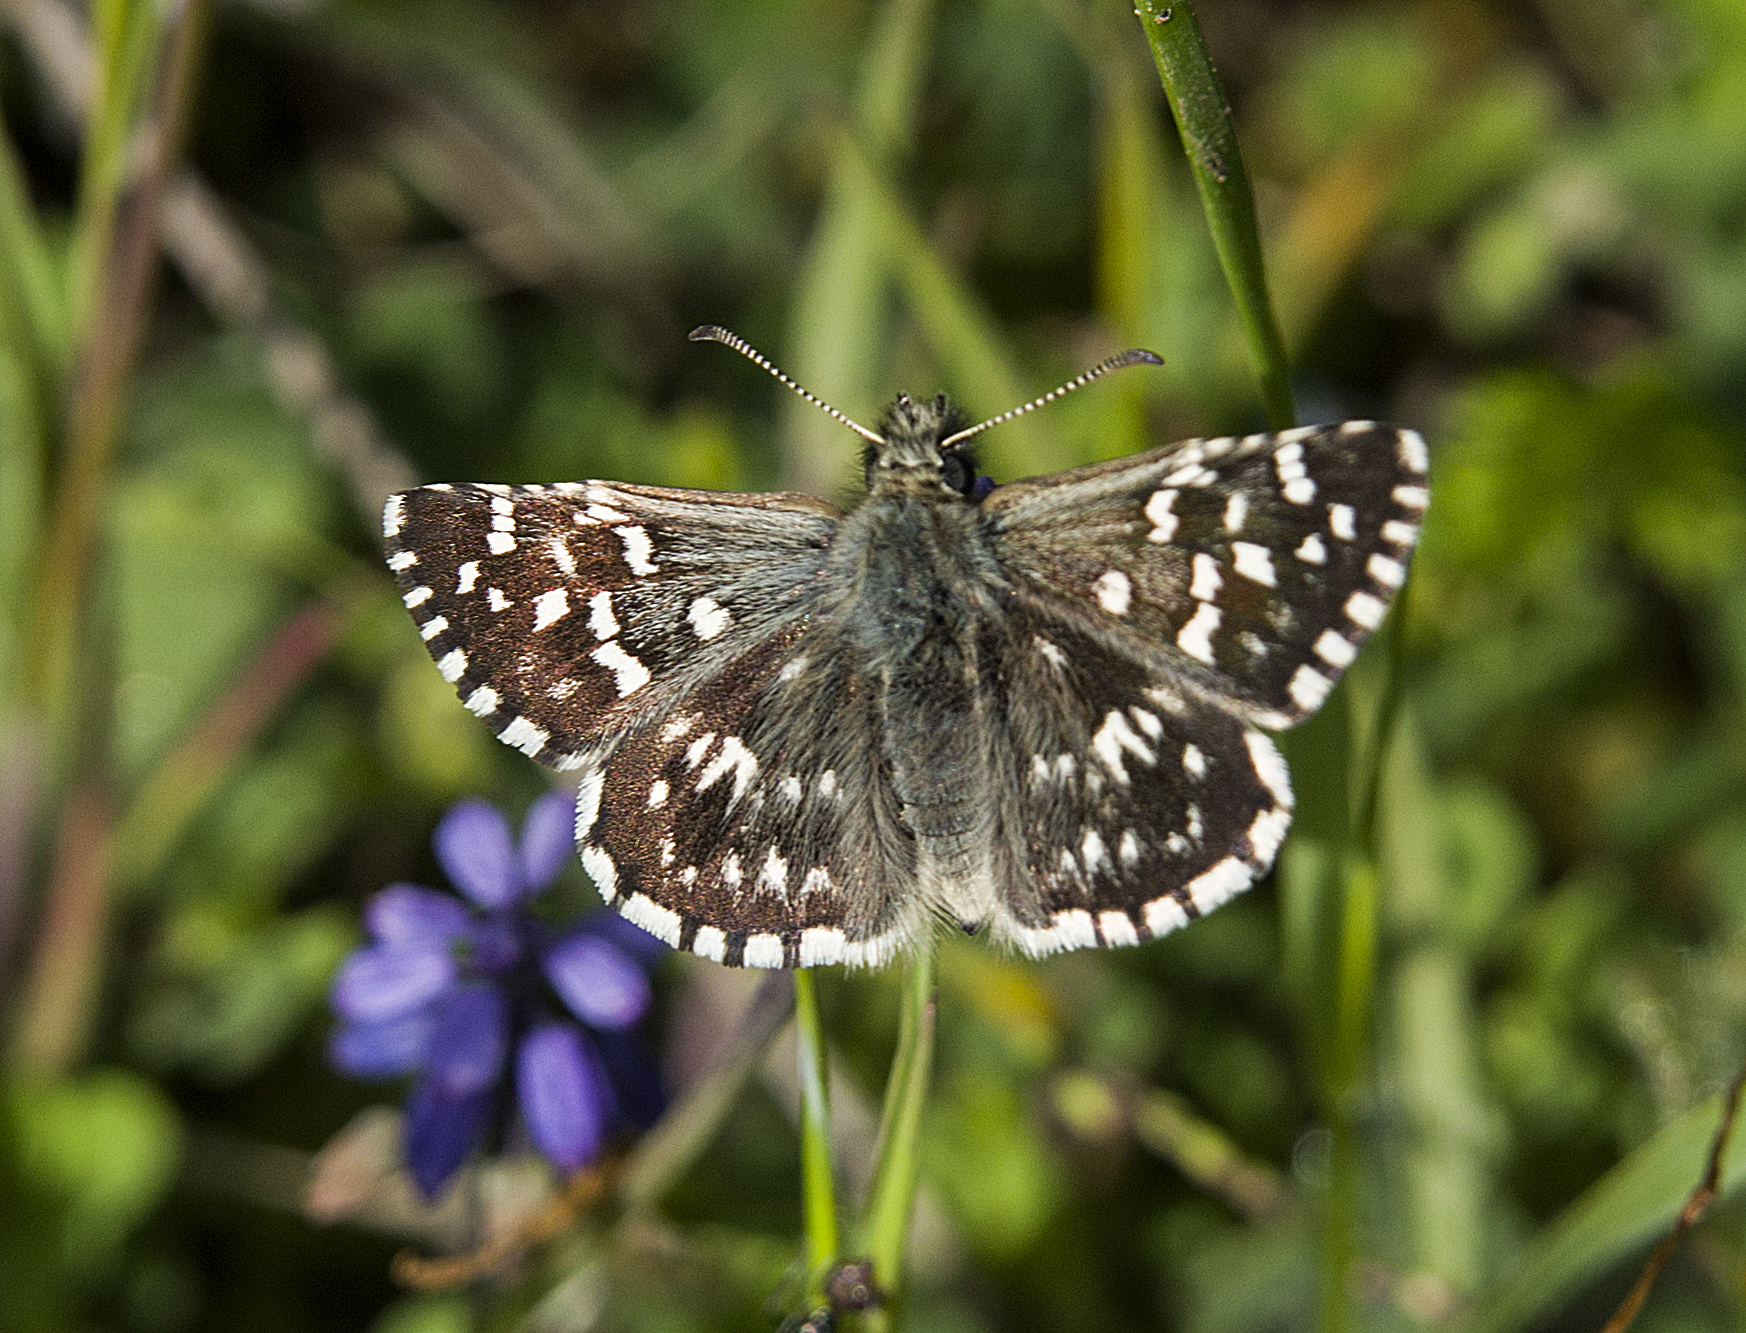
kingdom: Animalia
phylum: Arthropoda
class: Insecta
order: Lepidoptera
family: Hesperiidae
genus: Pyrgus
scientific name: Pyrgus malvae
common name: Grizzled skipper
